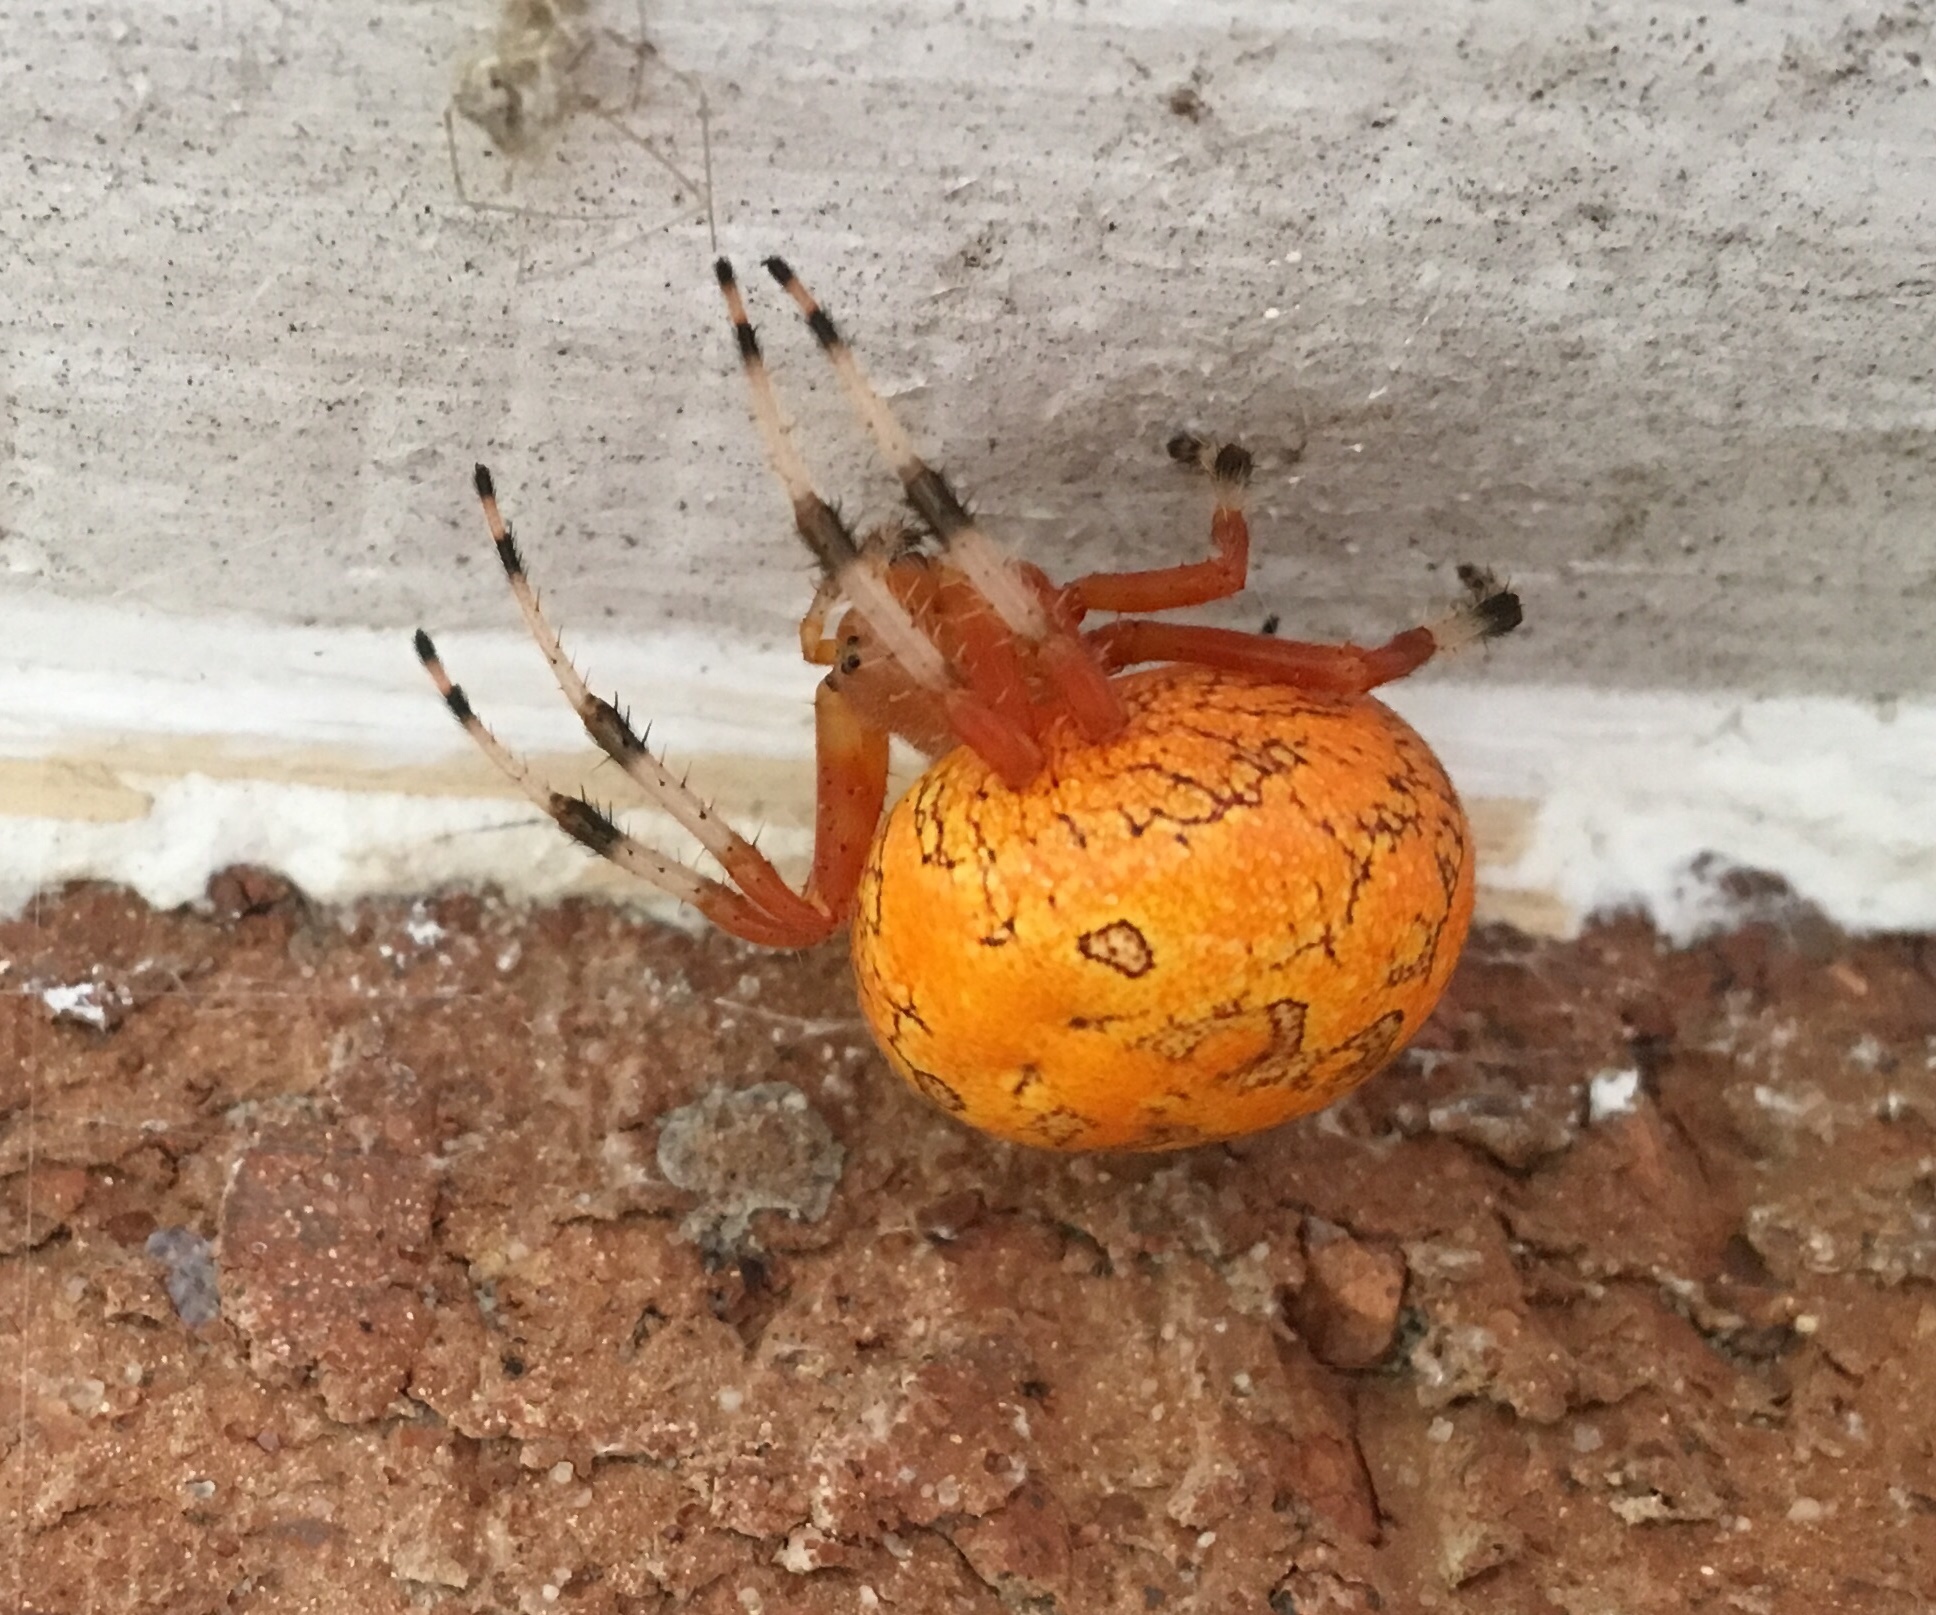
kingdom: Animalia
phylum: Arthropoda
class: Arachnida
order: Araneae
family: Araneidae
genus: Araneus
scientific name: Araneus marmoreus
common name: Marbled orbweaver
